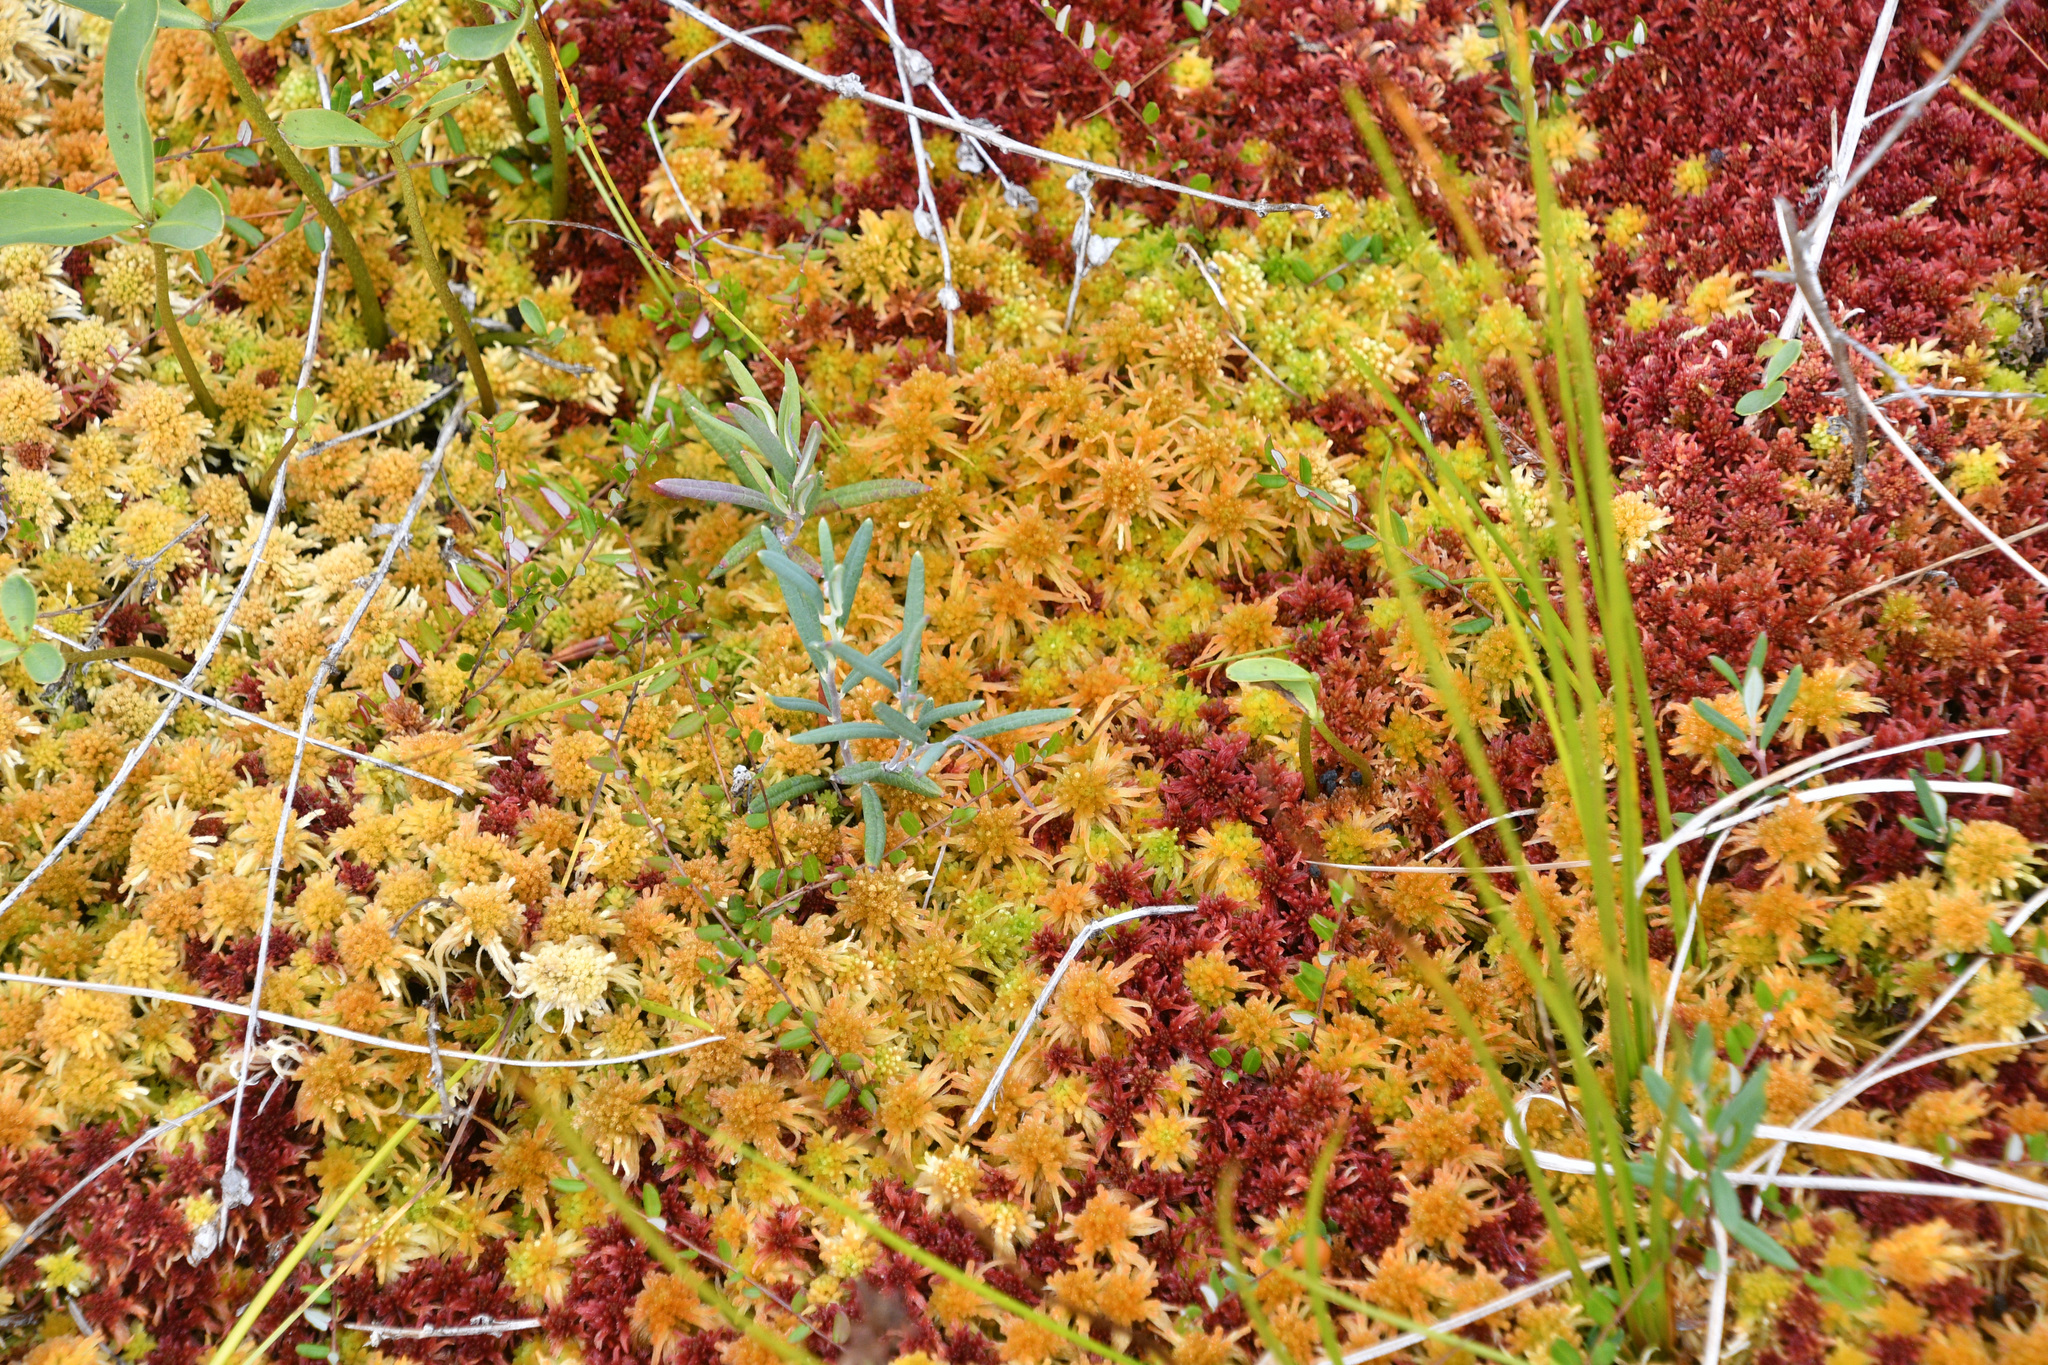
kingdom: Plantae
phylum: Tracheophyta
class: Magnoliopsida
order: Ericales
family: Ericaceae
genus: Andromeda
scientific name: Andromeda polifolia
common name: Bog-rosemary
